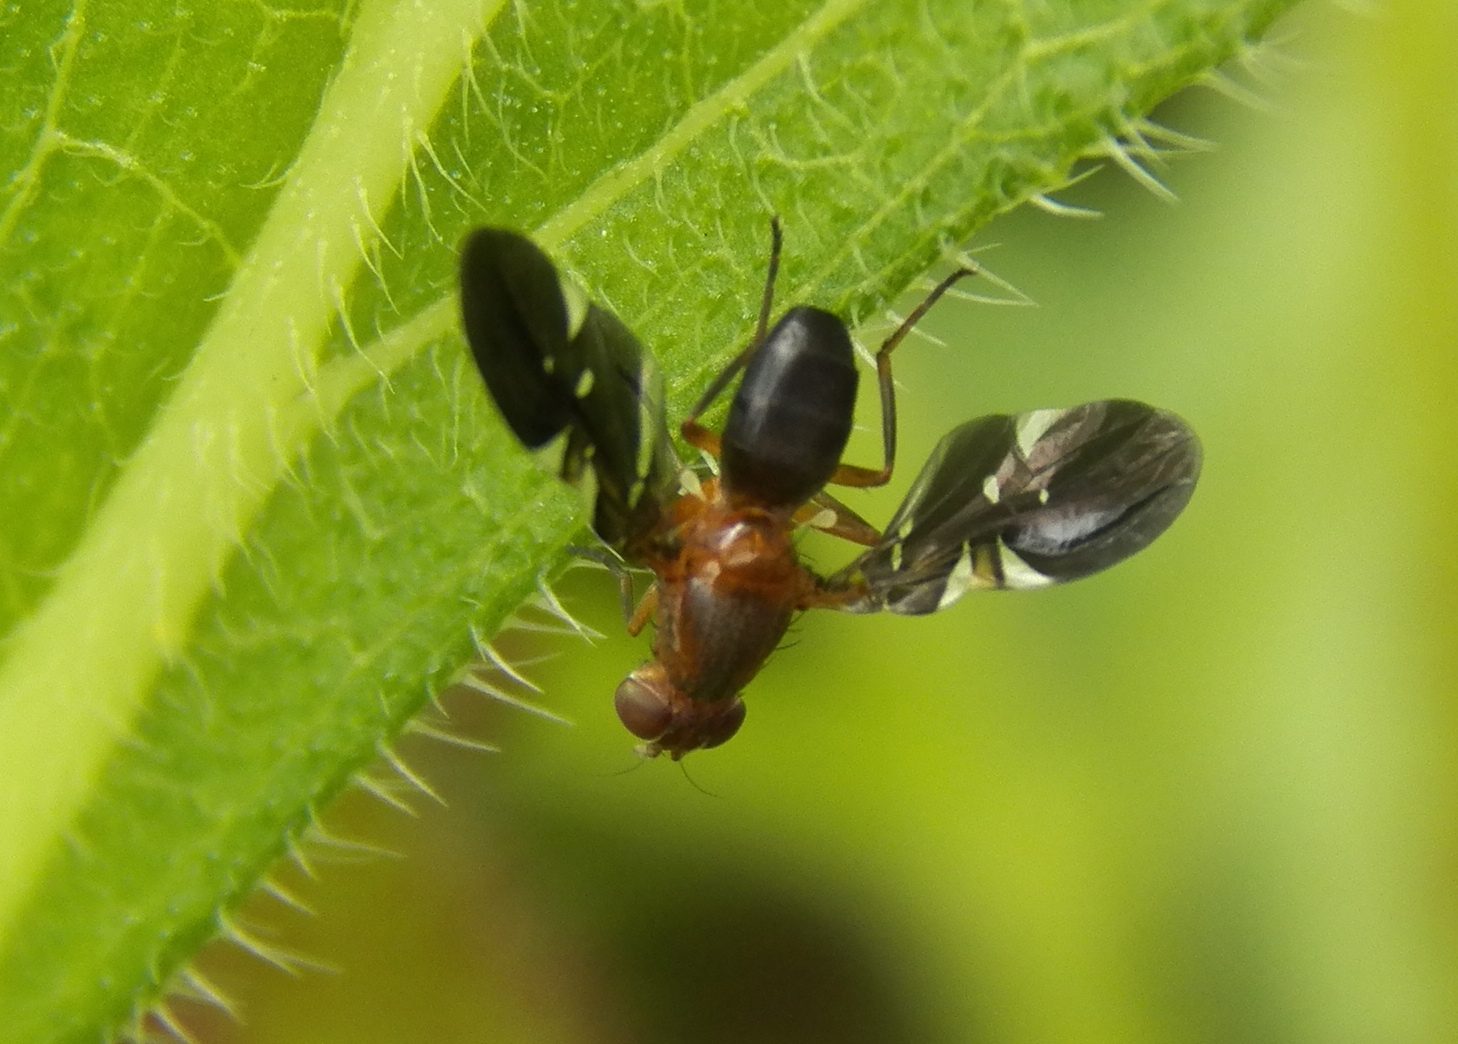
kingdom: Animalia
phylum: Arthropoda
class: Insecta
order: Diptera
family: Ulidiidae
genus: Delphinia
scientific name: Delphinia picta
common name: Common picture-winged fly
